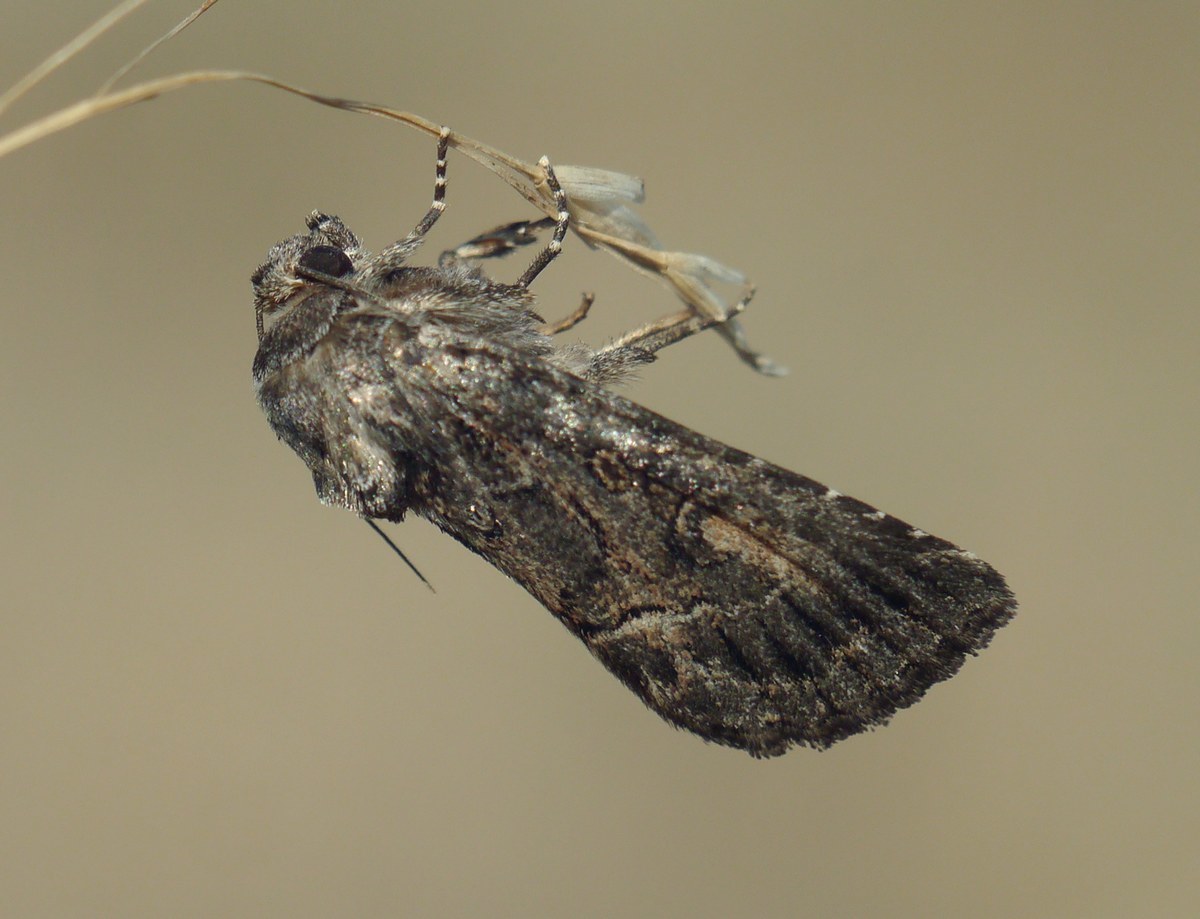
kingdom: Animalia
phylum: Arthropoda
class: Insecta
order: Lepidoptera
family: Noctuidae
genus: Thalpophila
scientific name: Thalpophila matura
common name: Straw underwing
